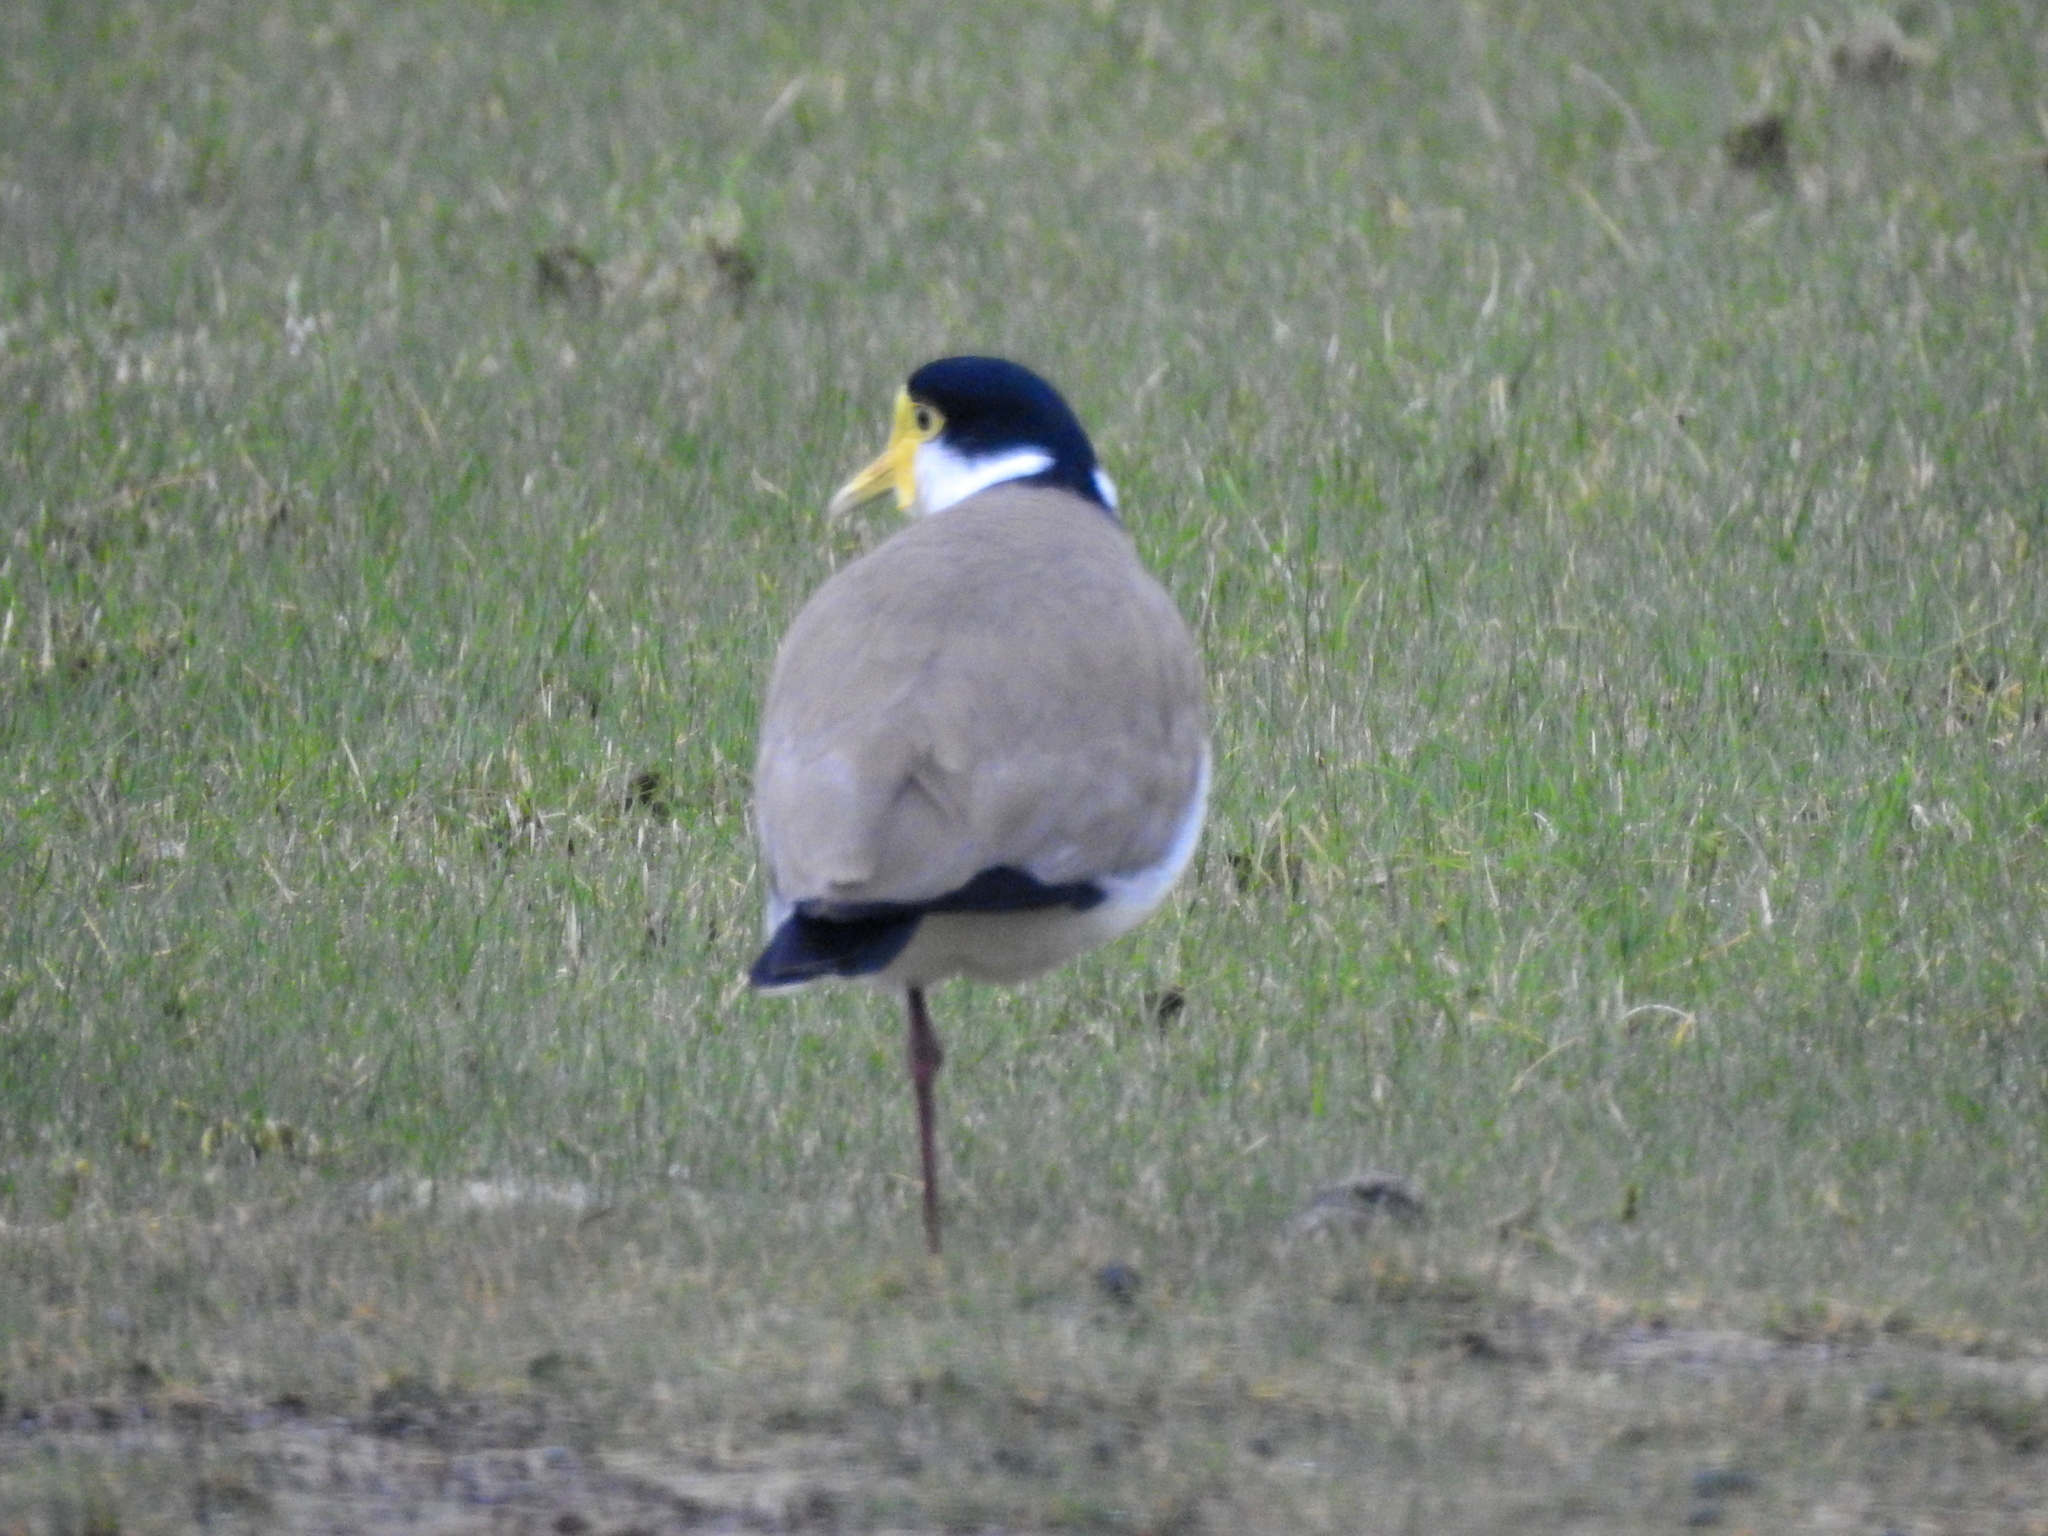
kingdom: Animalia
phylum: Chordata
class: Aves
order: Charadriiformes
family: Charadriidae
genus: Vanellus
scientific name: Vanellus miles
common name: Masked lapwing
